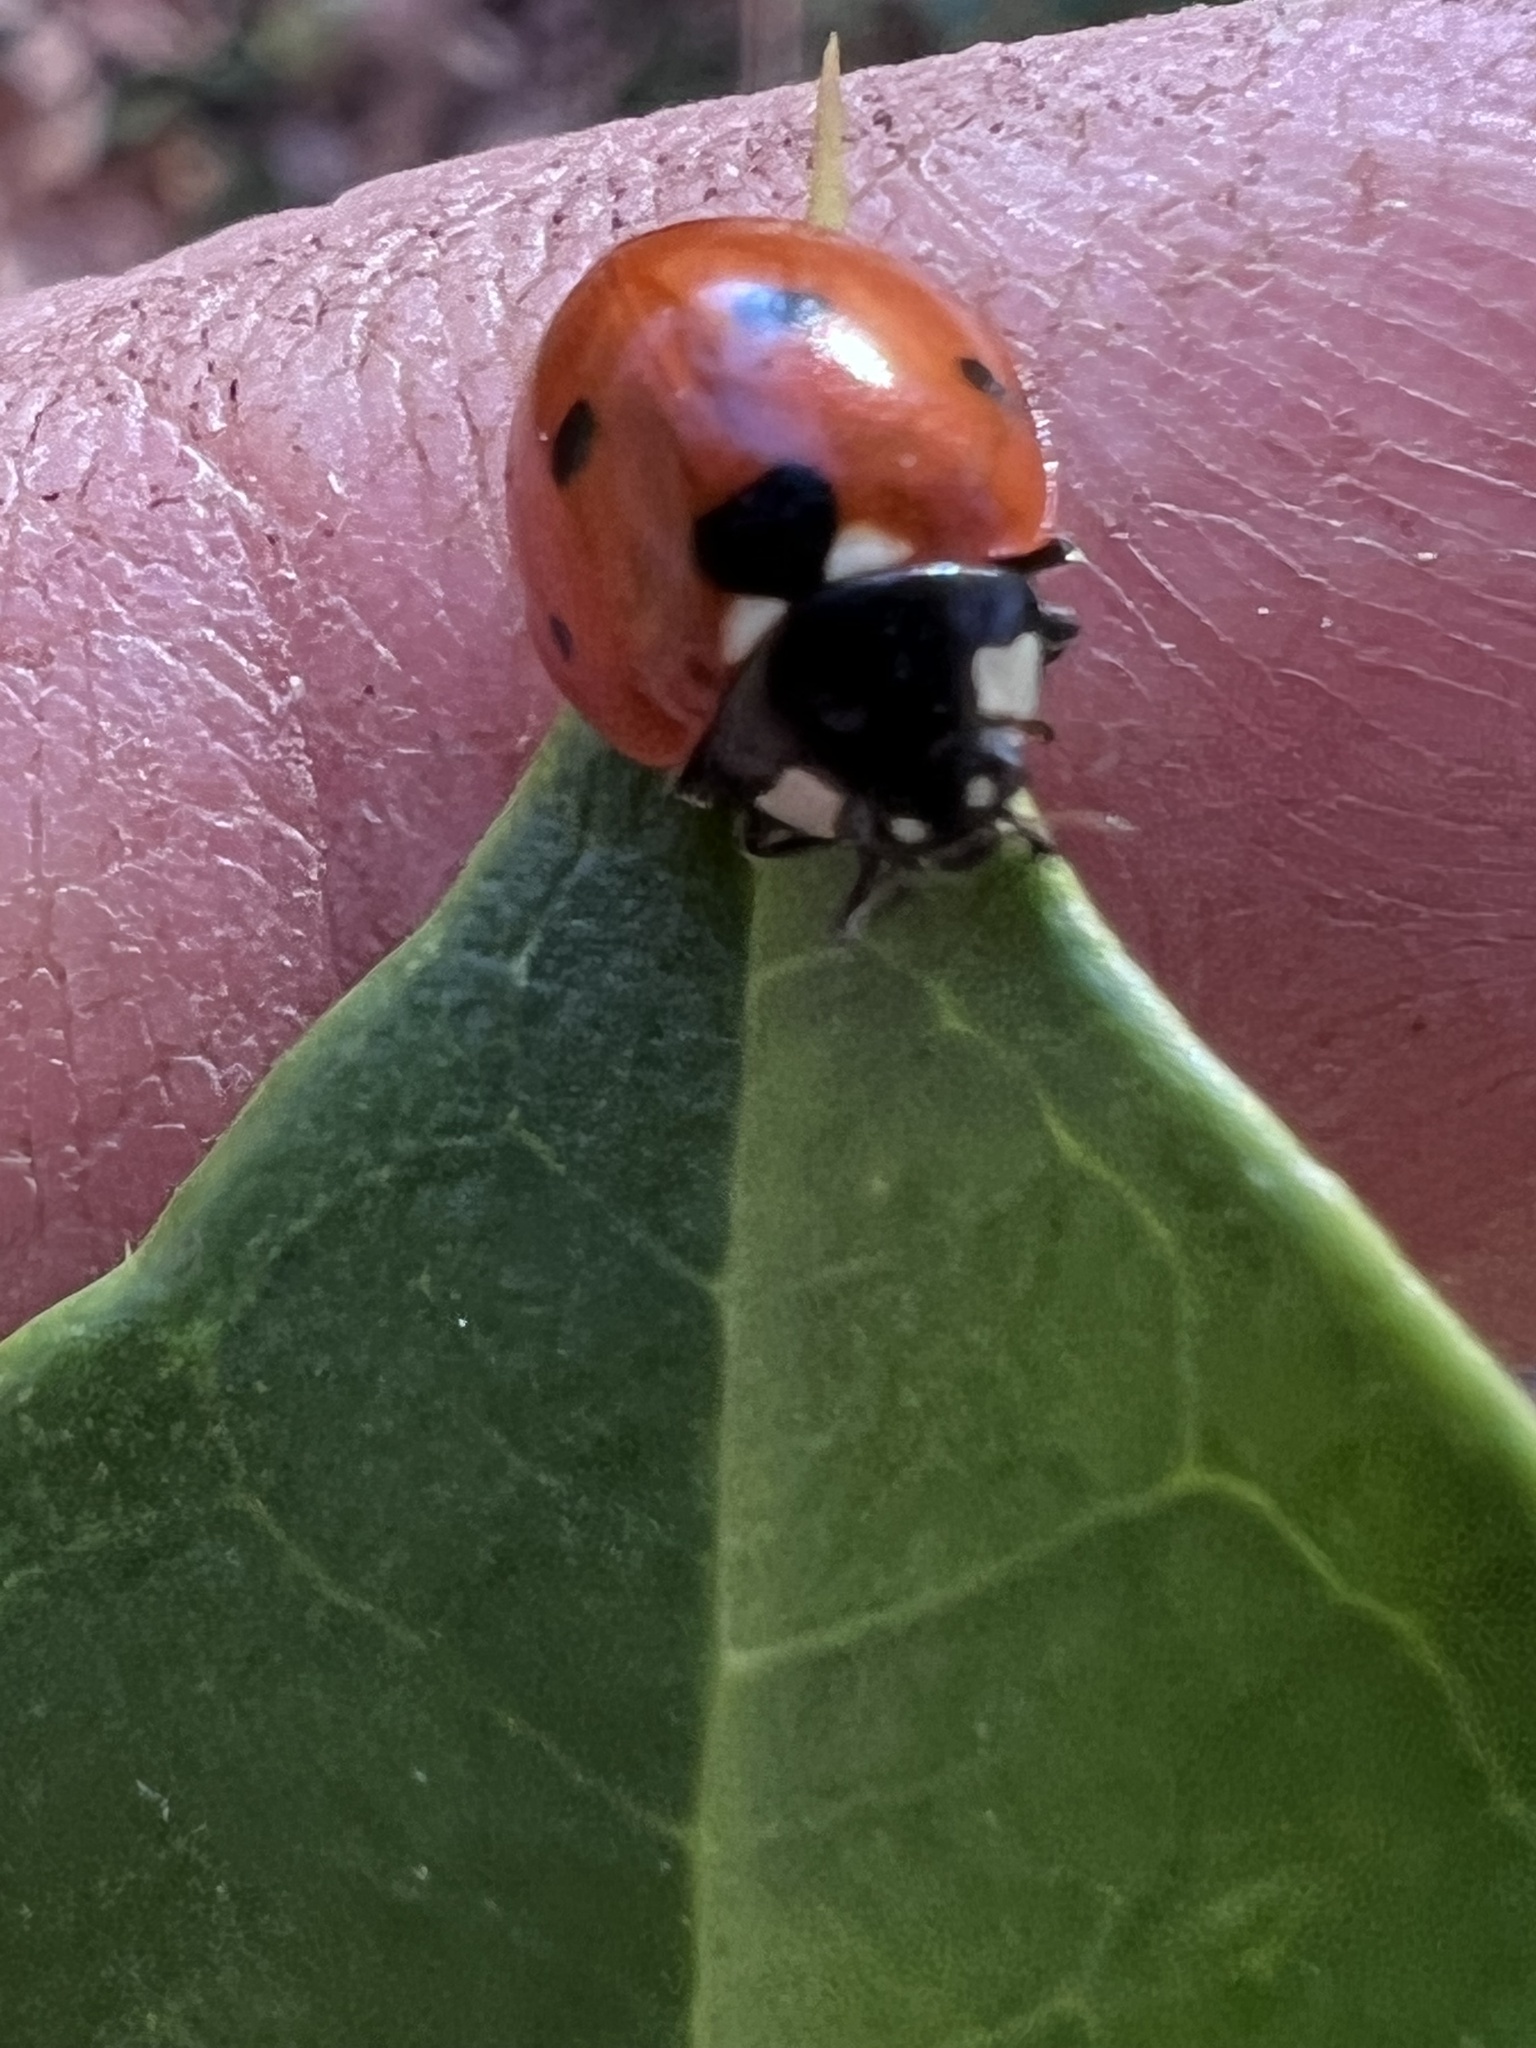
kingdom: Animalia
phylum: Arthropoda
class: Insecta
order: Coleoptera
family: Coccinellidae
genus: Coccinella
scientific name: Coccinella septempunctata
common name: Sevenspotted lady beetle
